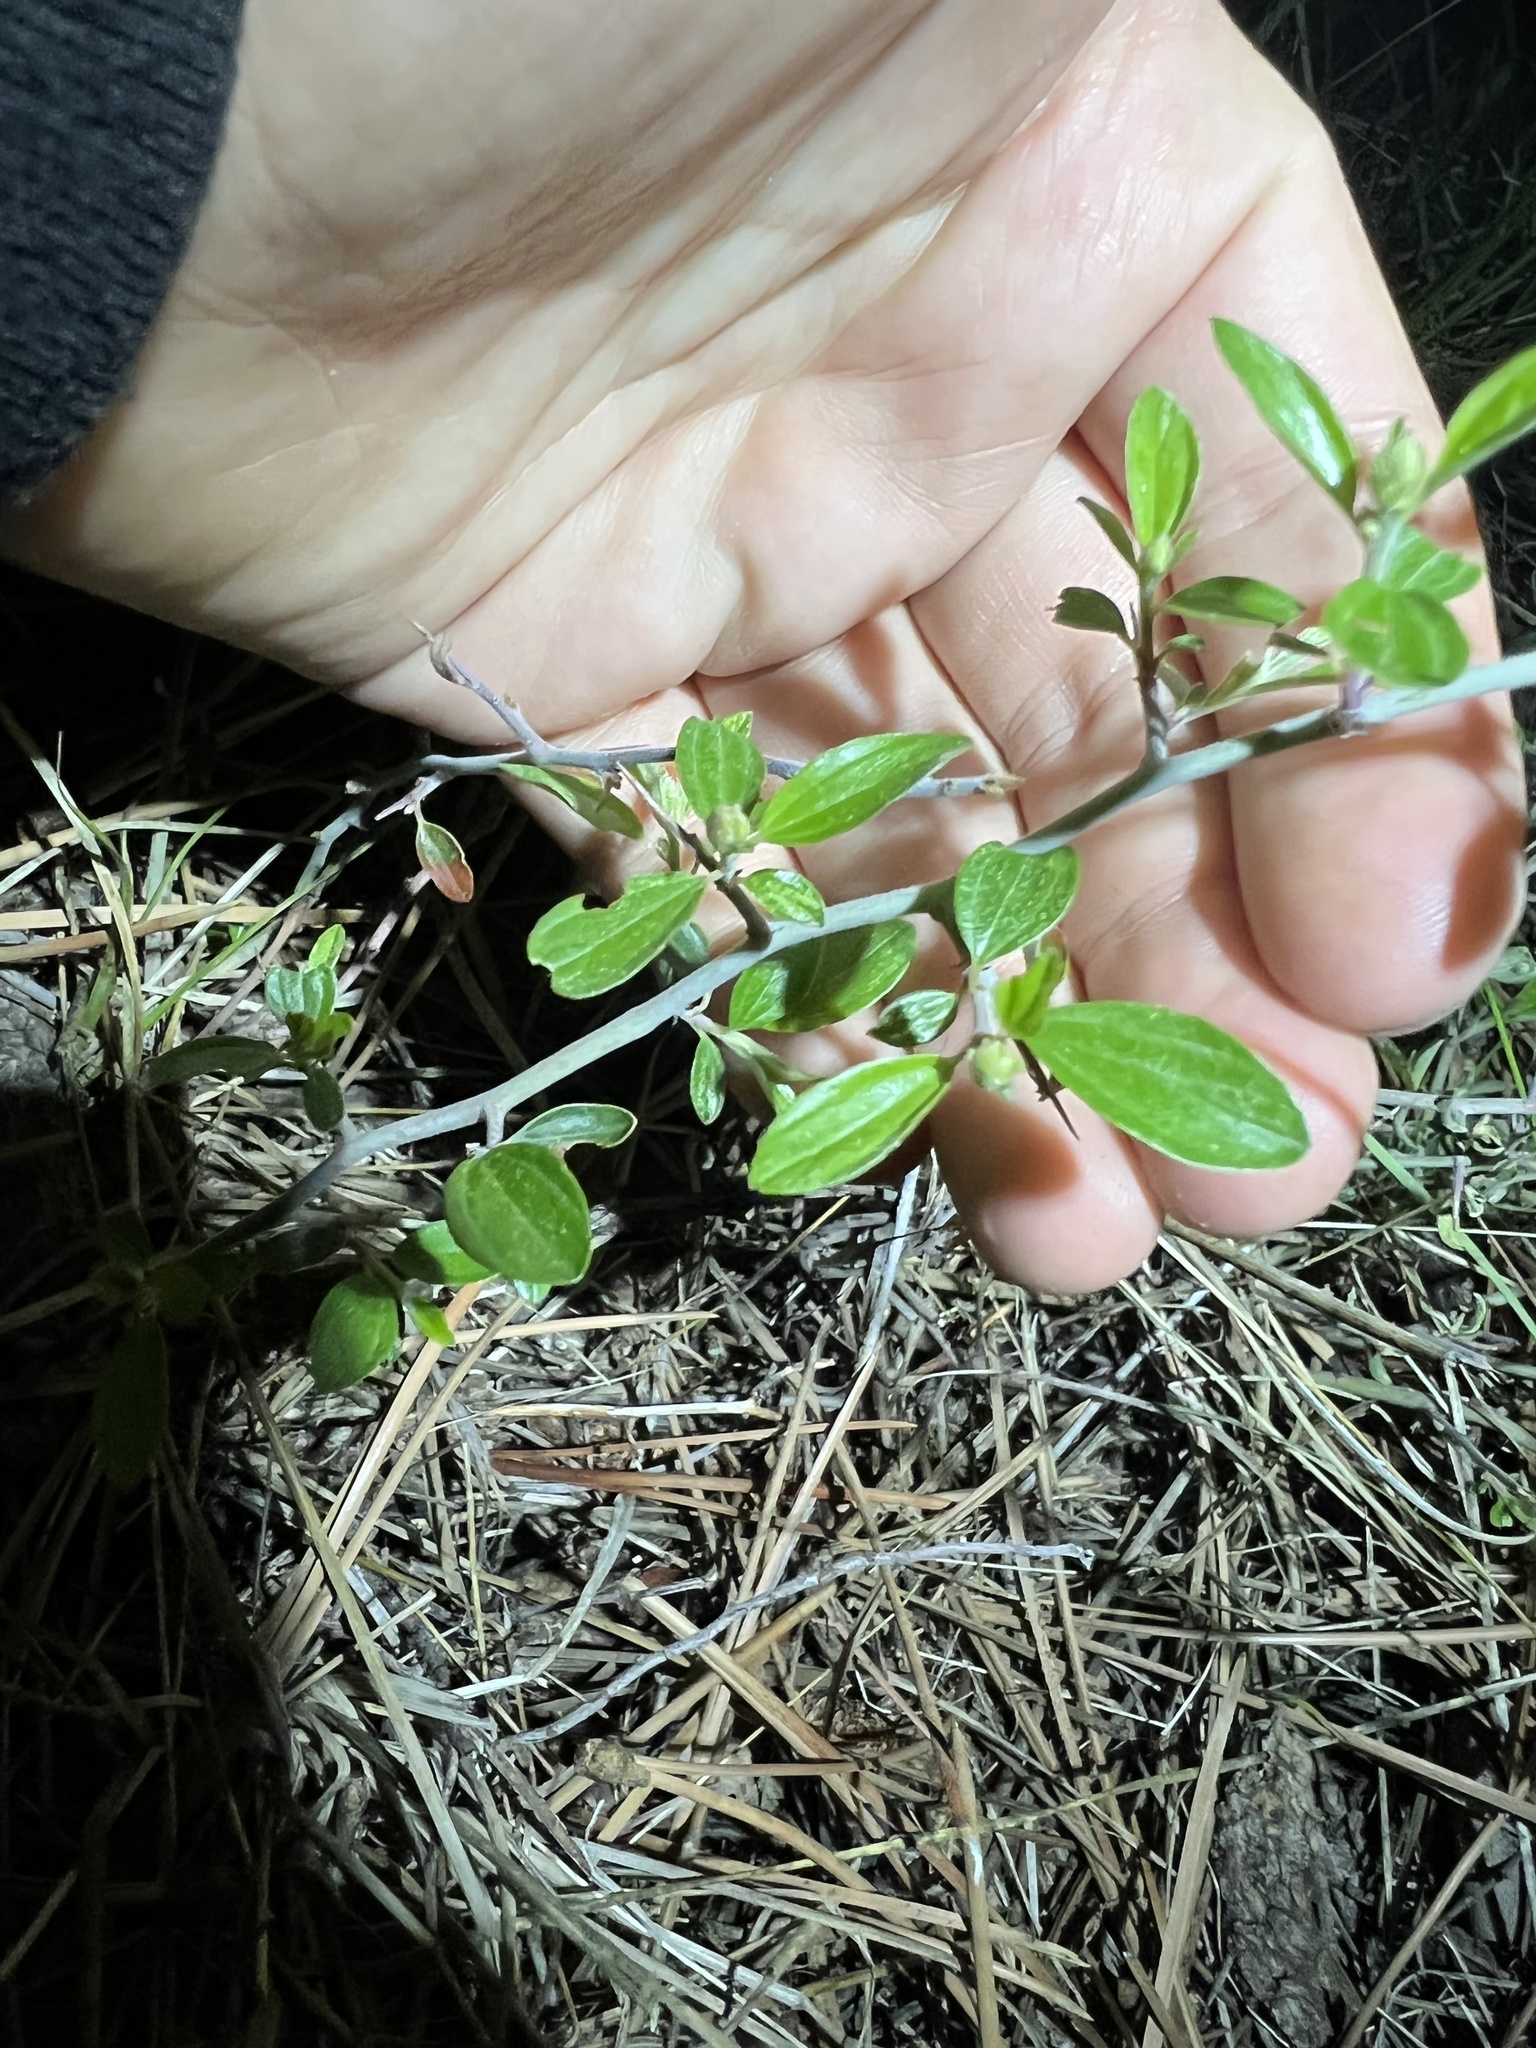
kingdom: Plantae
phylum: Tracheophyta
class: Magnoliopsida
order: Rosales
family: Rhamnaceae
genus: Ceanothus
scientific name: Ceanothus fendleri
